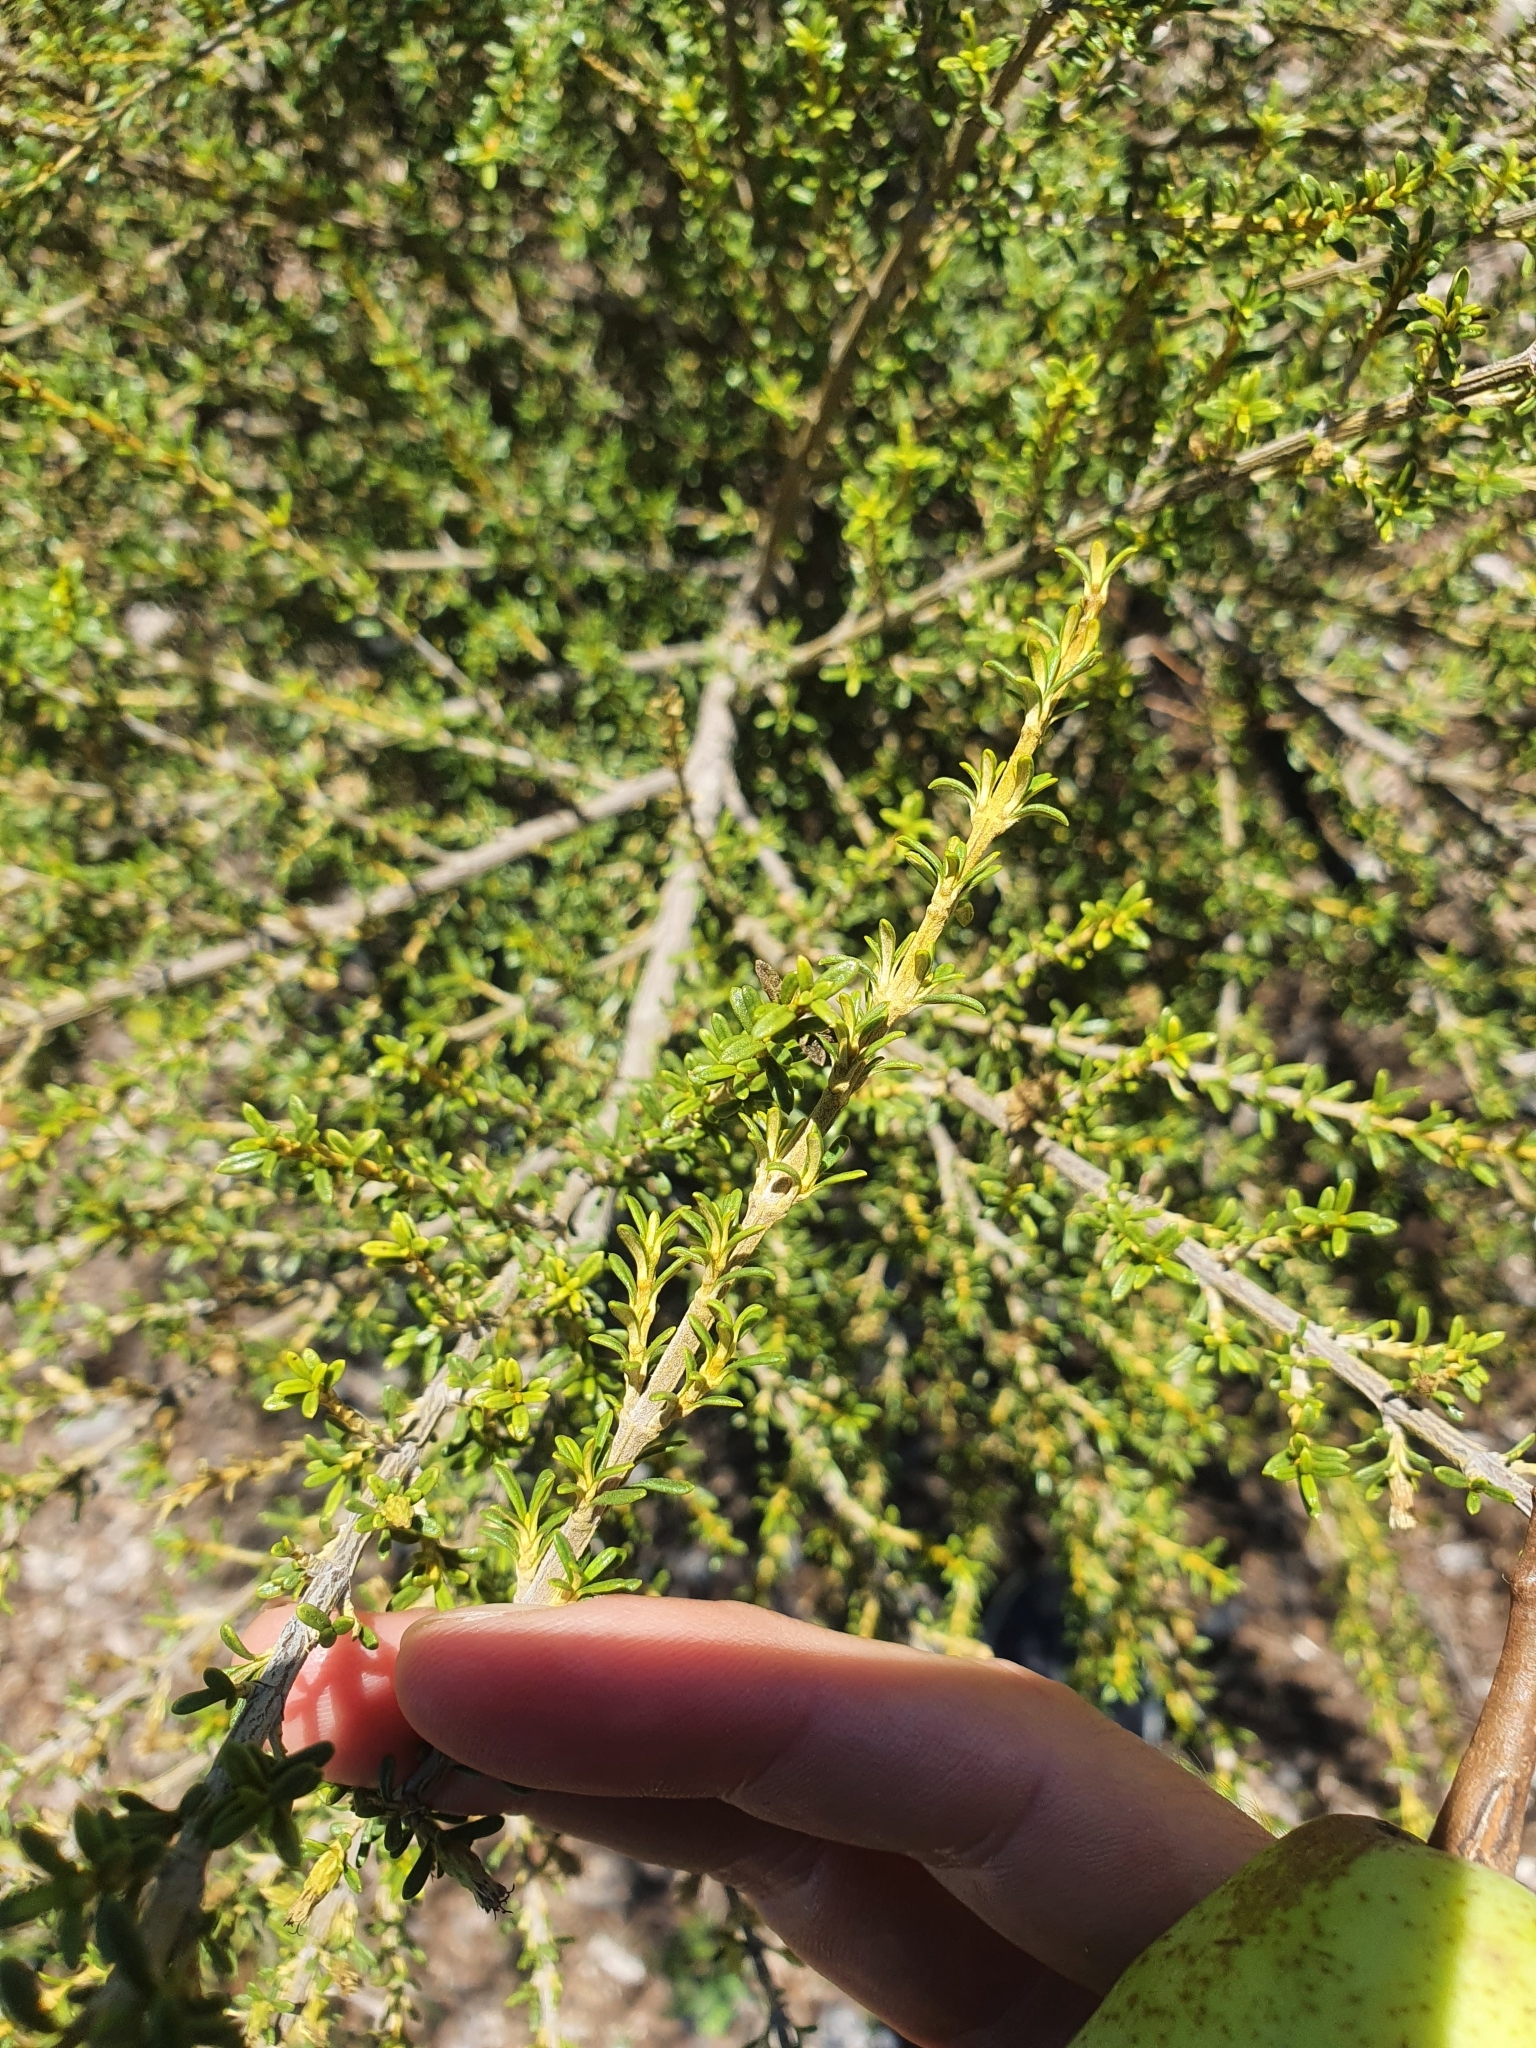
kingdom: Plantae
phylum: Tracheophyta
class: Magnoliopsida
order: Asterales
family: Asteraceae
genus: Olearia
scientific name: Olearia solandri
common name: Coastal daisybush
